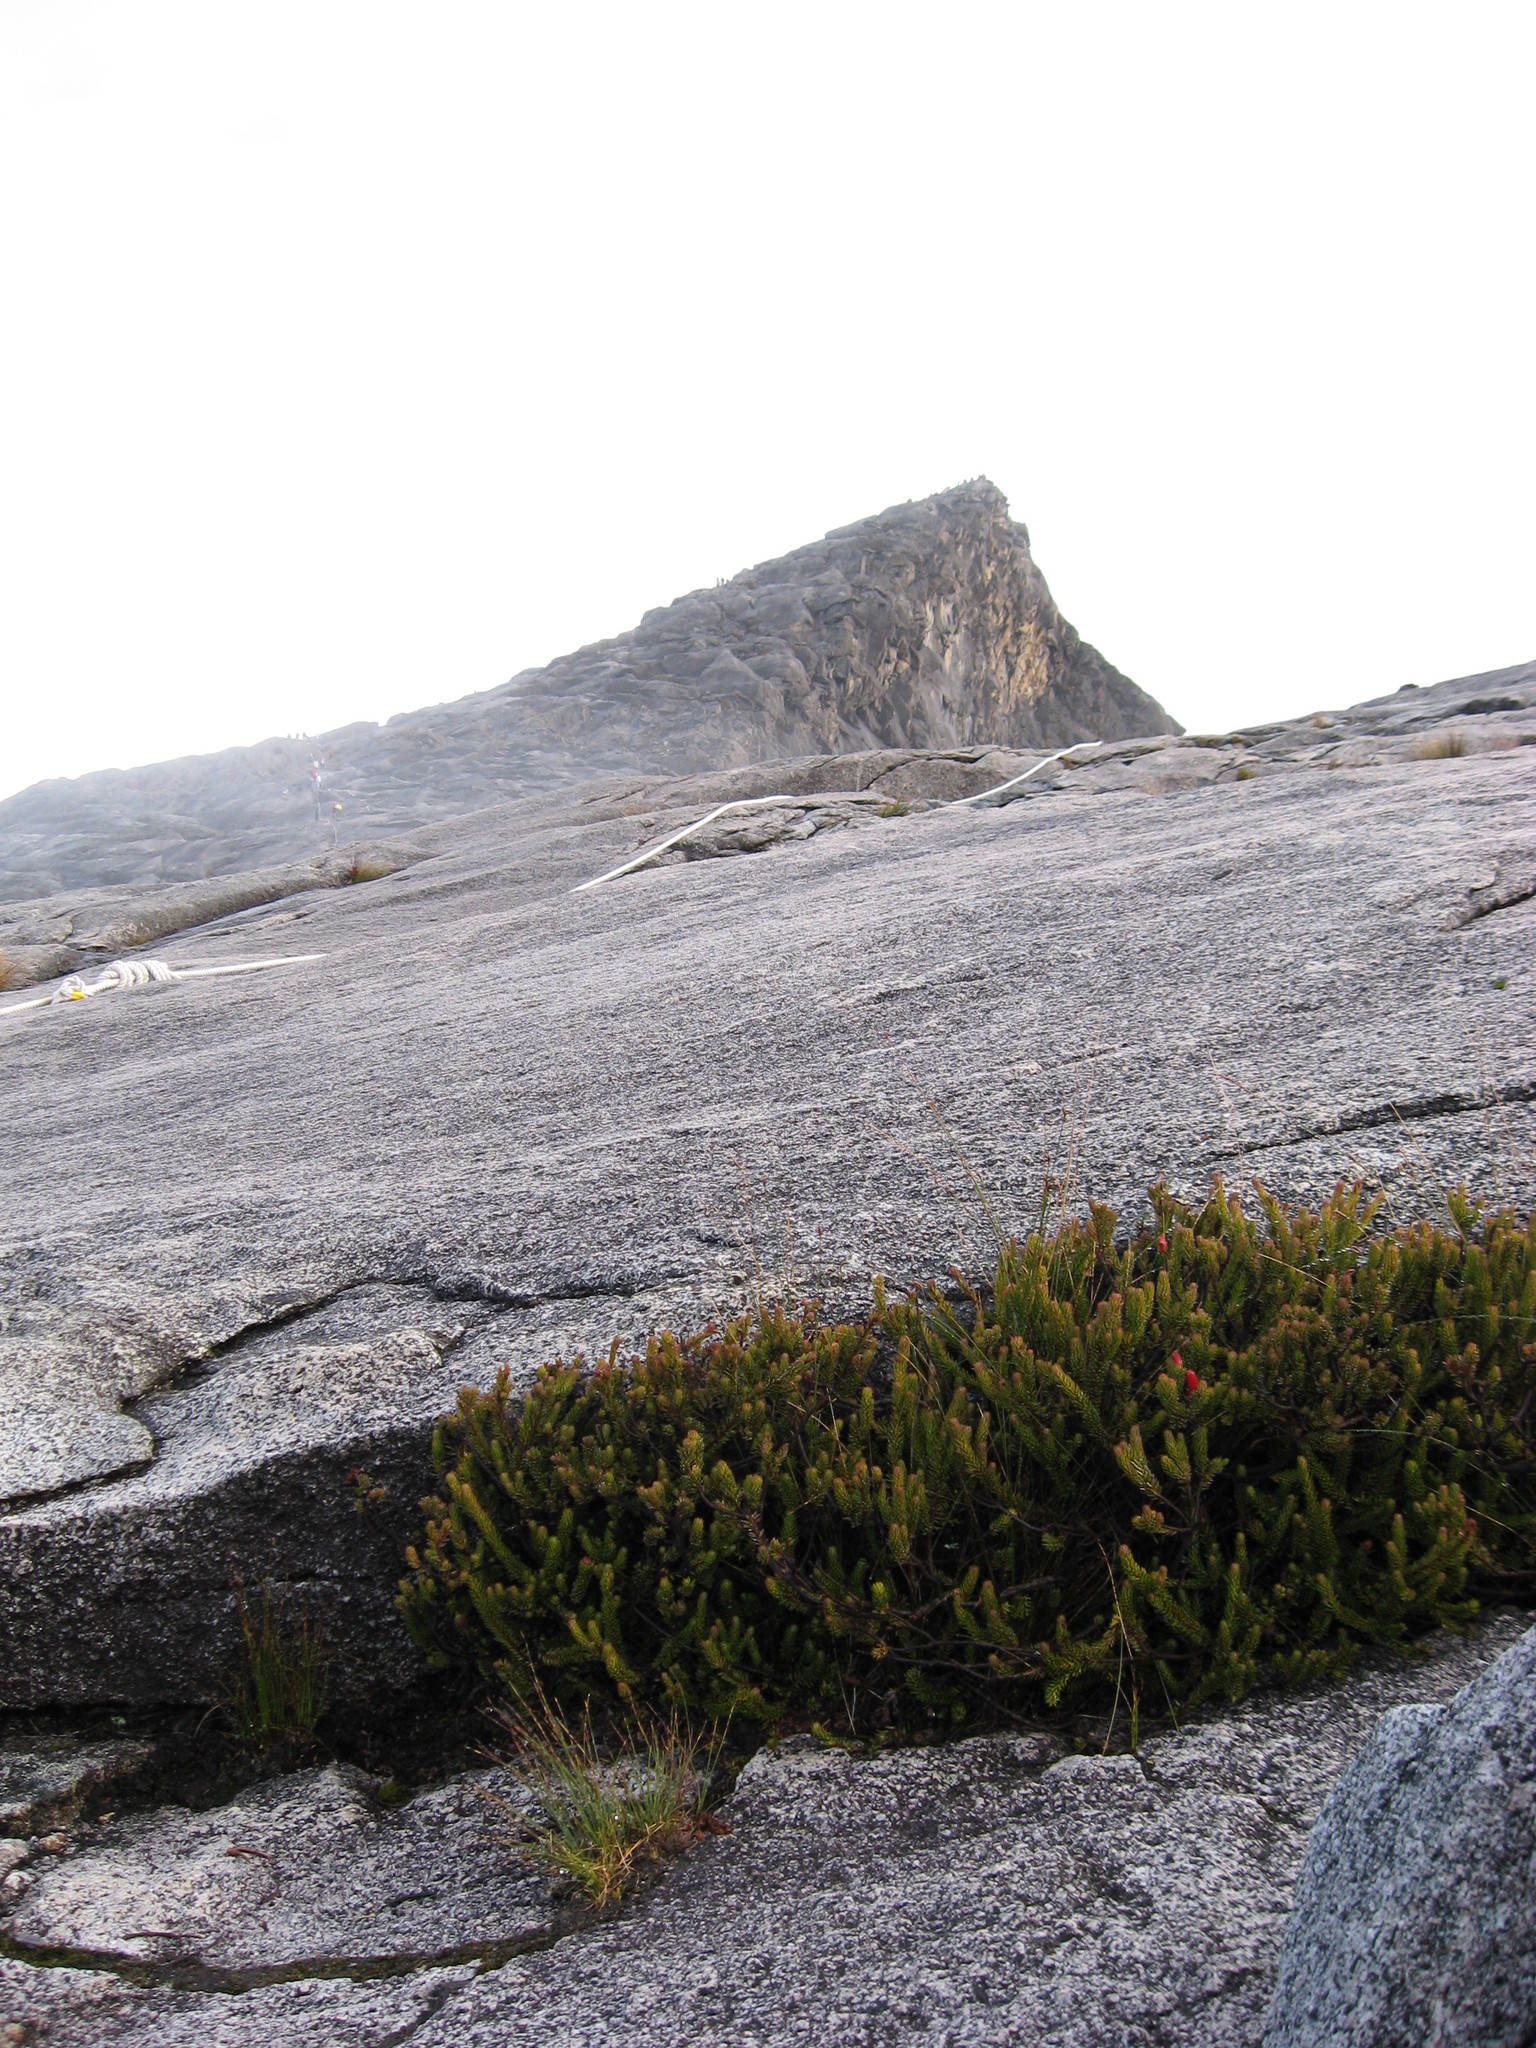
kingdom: Plantae
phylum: Tracheophyta
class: Magnoliopsida
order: Ericales
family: Ericaceae
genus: Rhododendron
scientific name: Rhododendron ericoides
